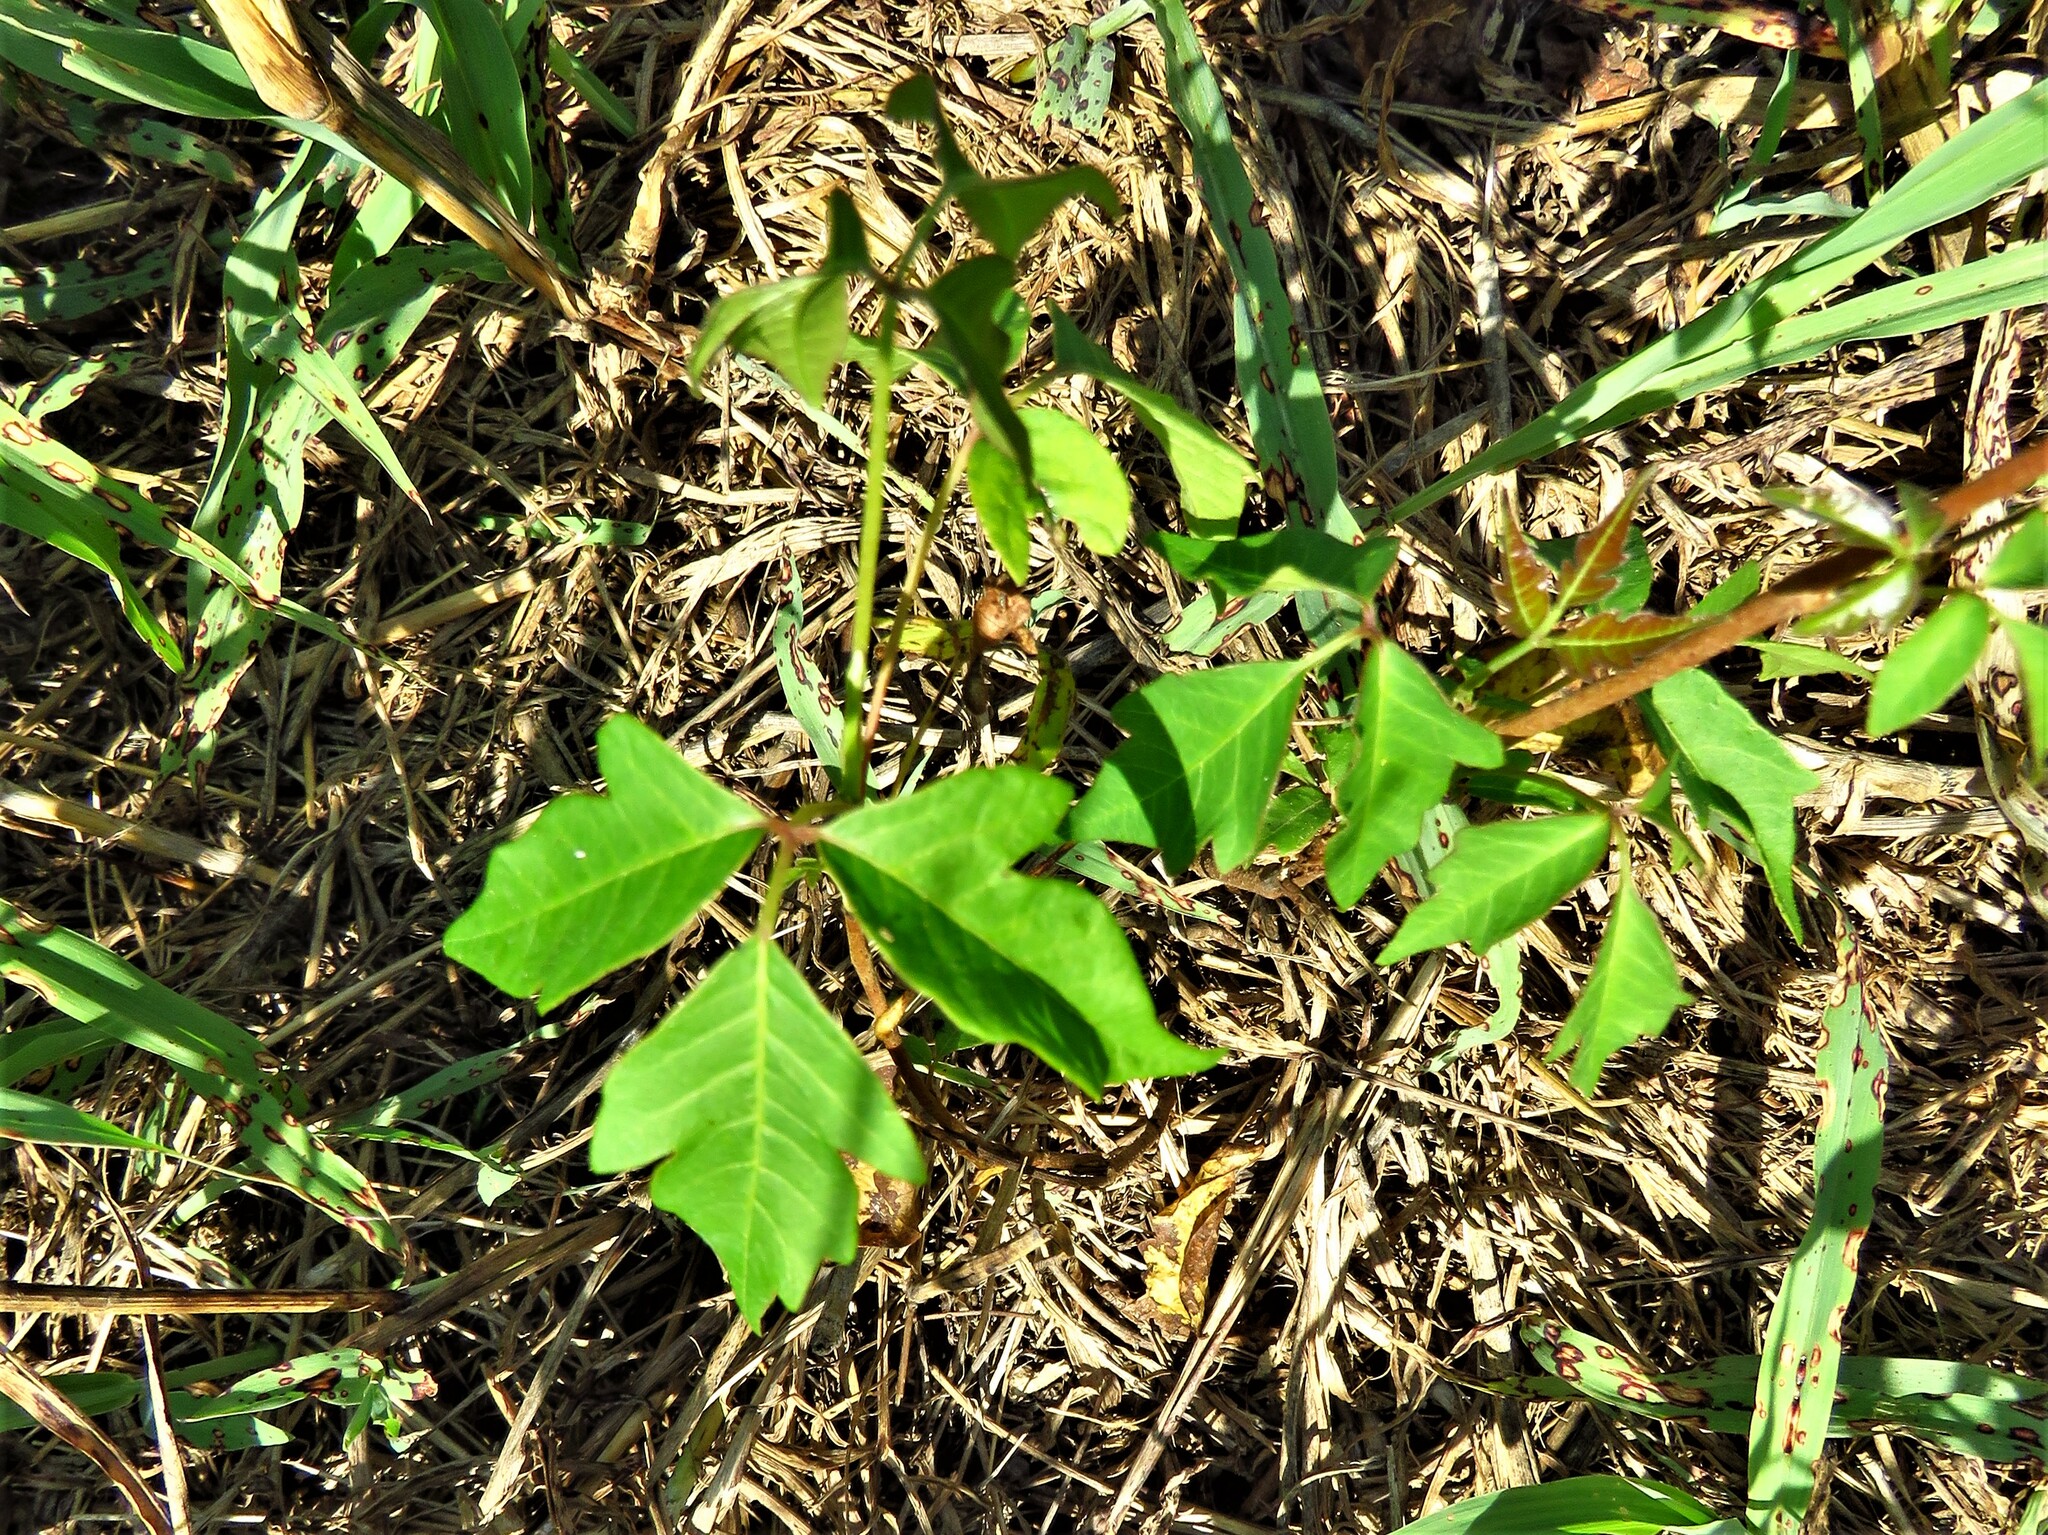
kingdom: Plantae
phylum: Tracheophyta
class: Magnoliopsida
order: Sapindales
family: Anacardiaceae
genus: Toxicodendron
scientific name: Toxicodendron radicans
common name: Poison ivy
